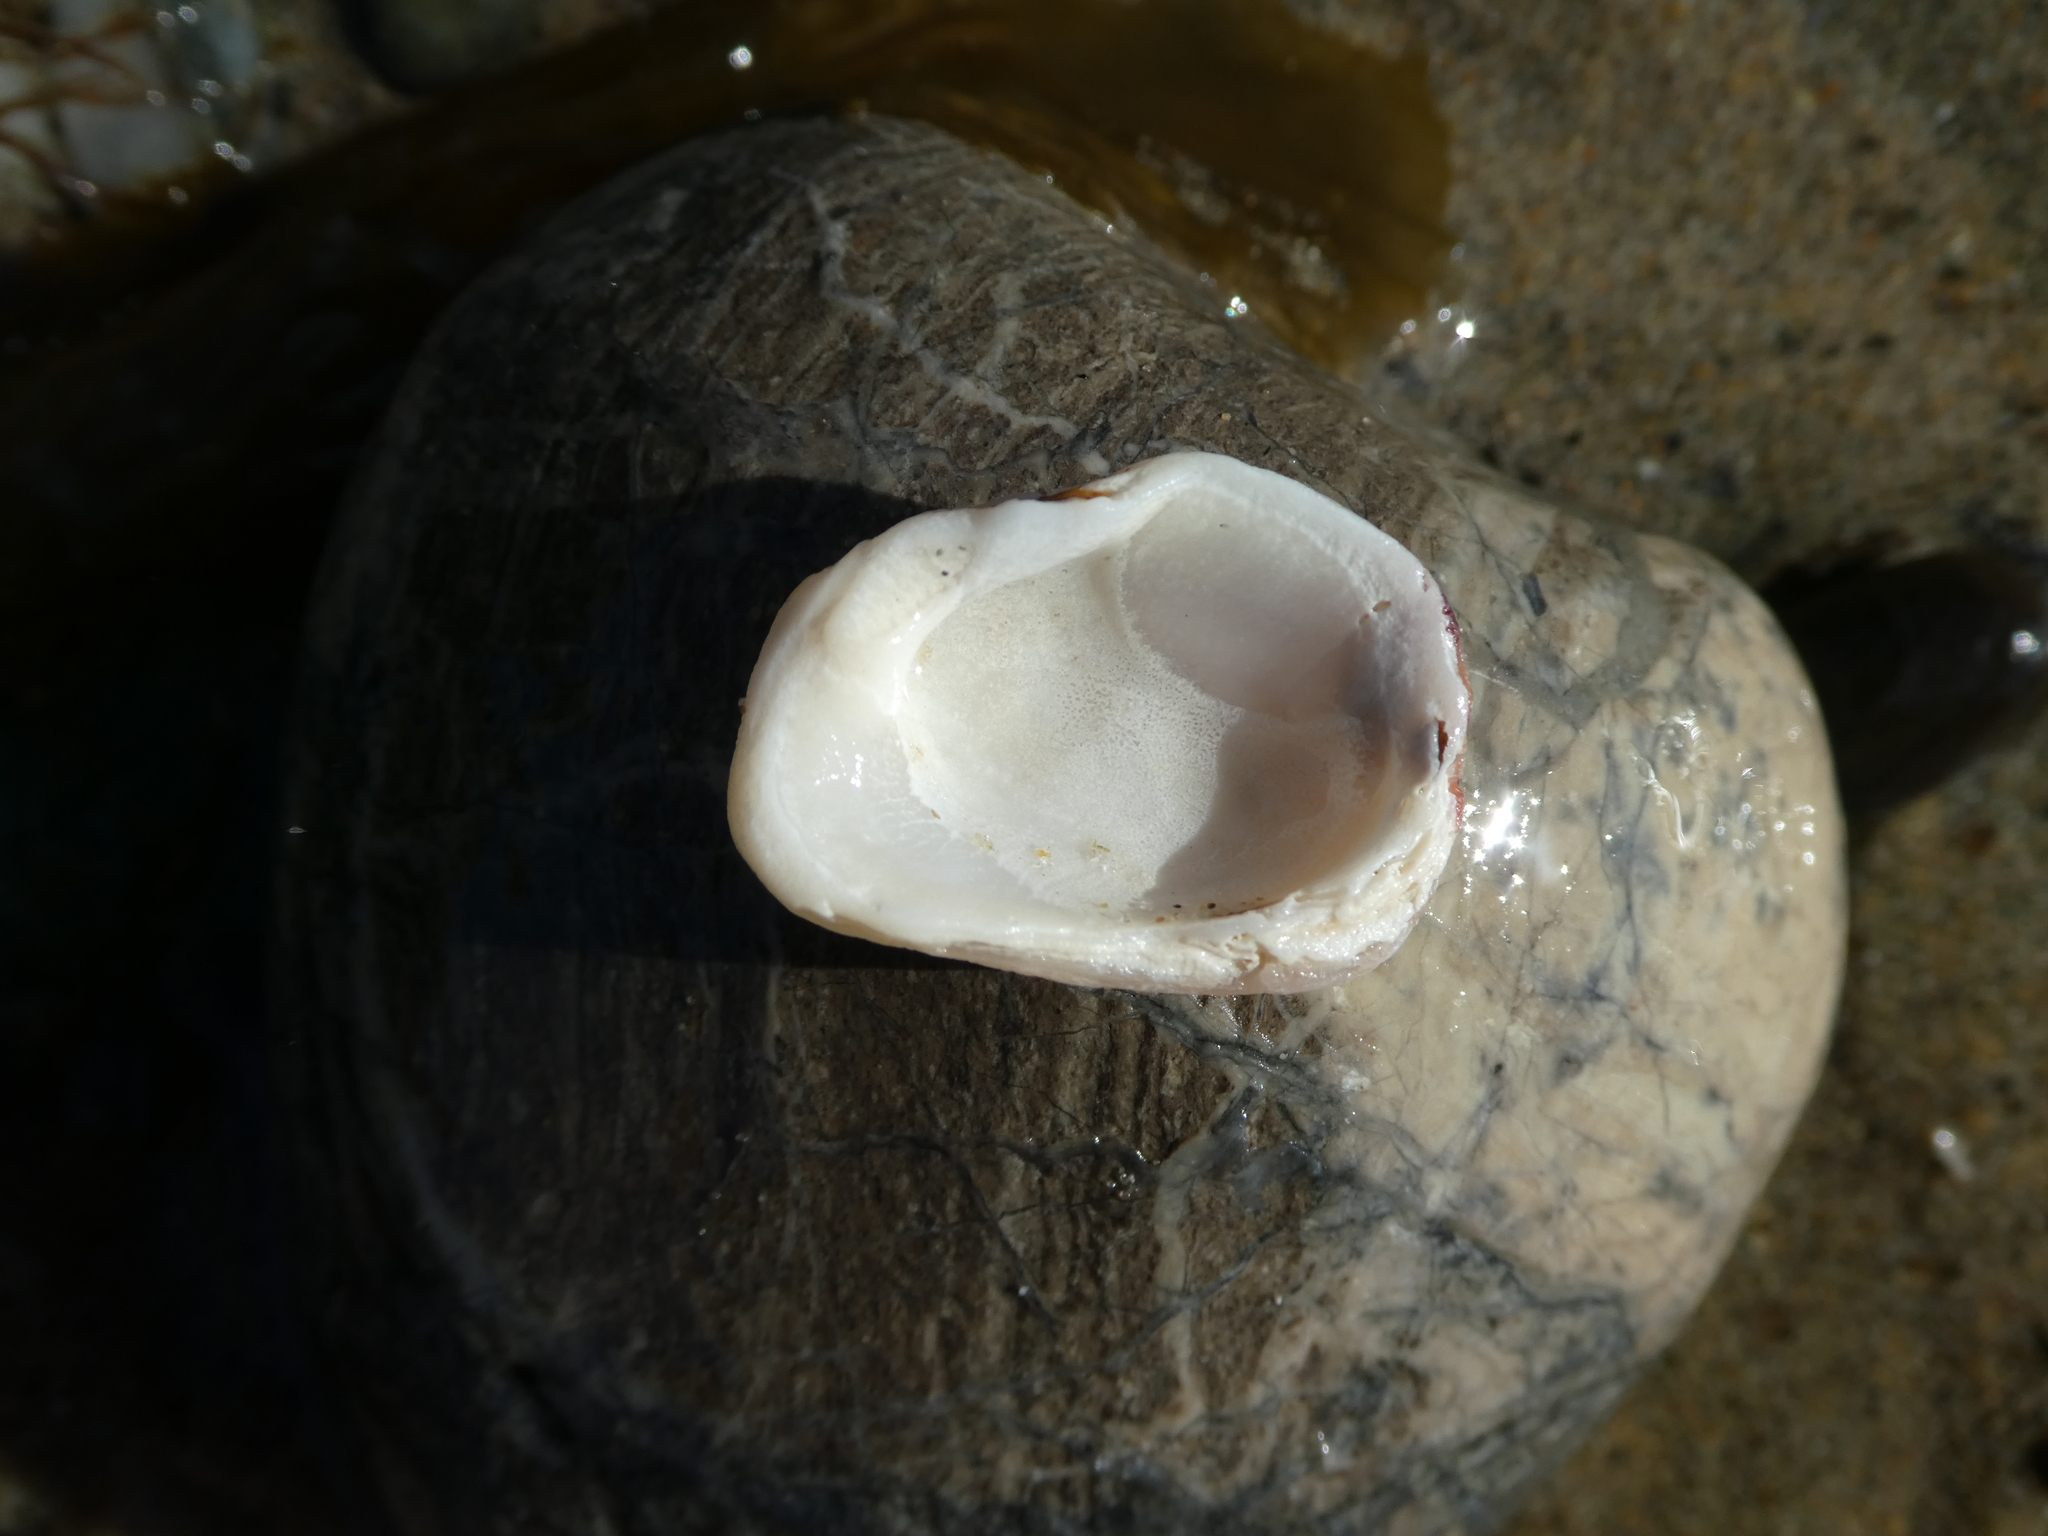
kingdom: Animalia
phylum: Mollusca
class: Bivalvia
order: Venerida
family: Chamidae
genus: Chama
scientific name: Chama arcana
